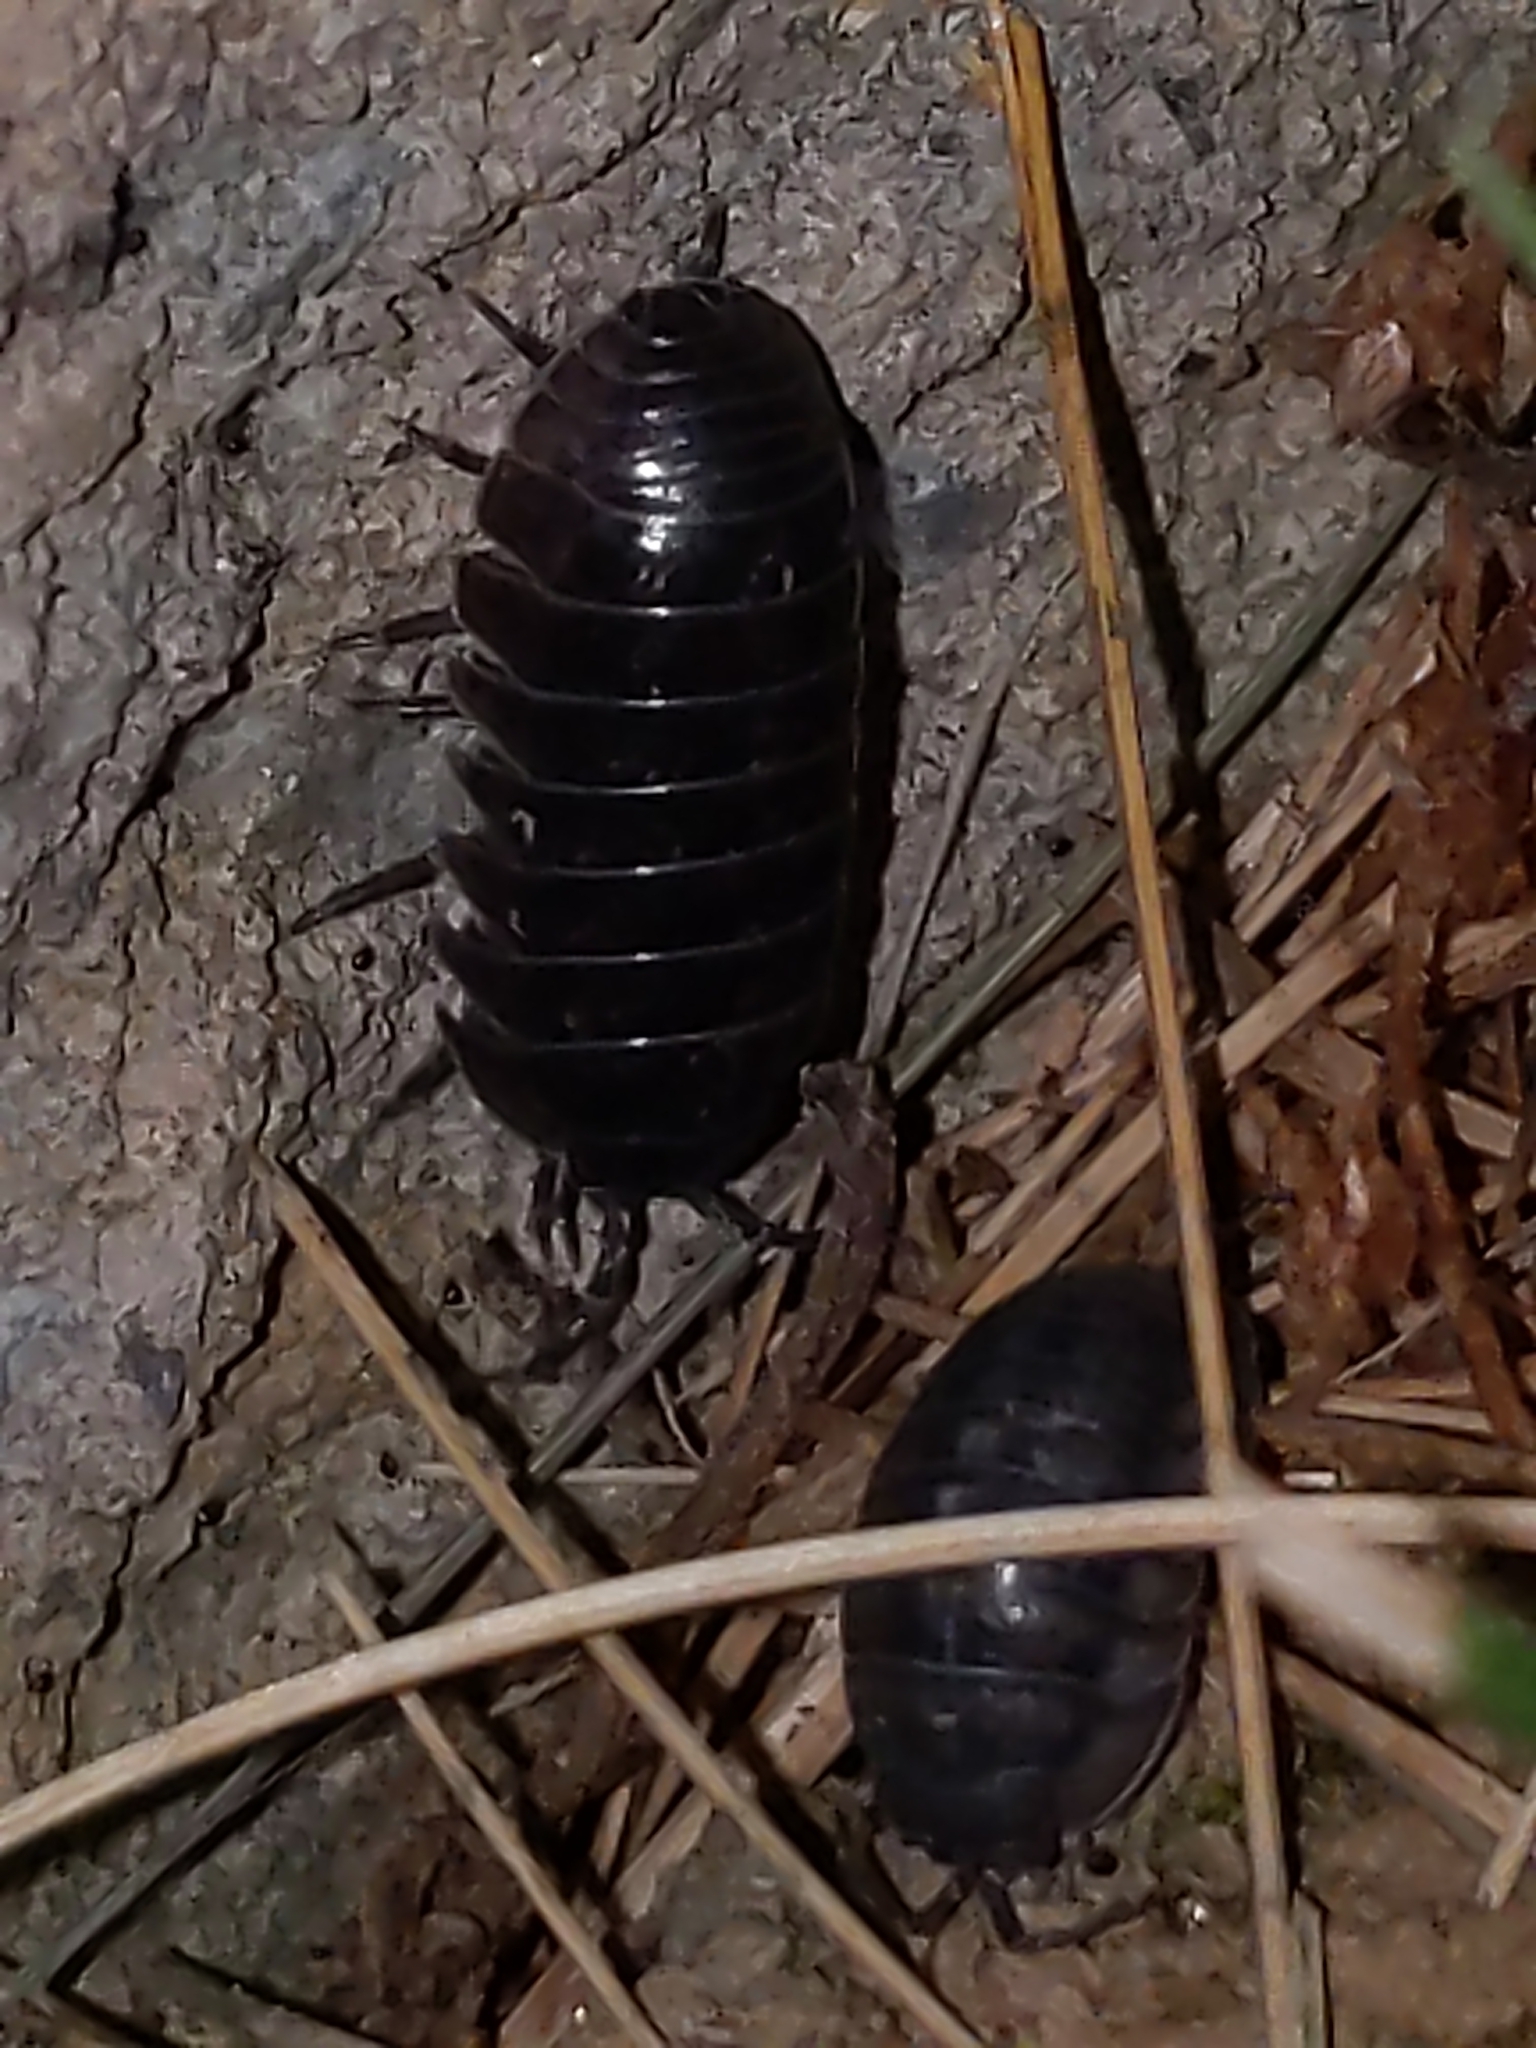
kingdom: Animalia
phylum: Arthropoda
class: Malacostraca
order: Isopoda
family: Armadillidiidae
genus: Armadillidium
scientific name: Armadillidium vulgare
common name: Common pill woodlouse
